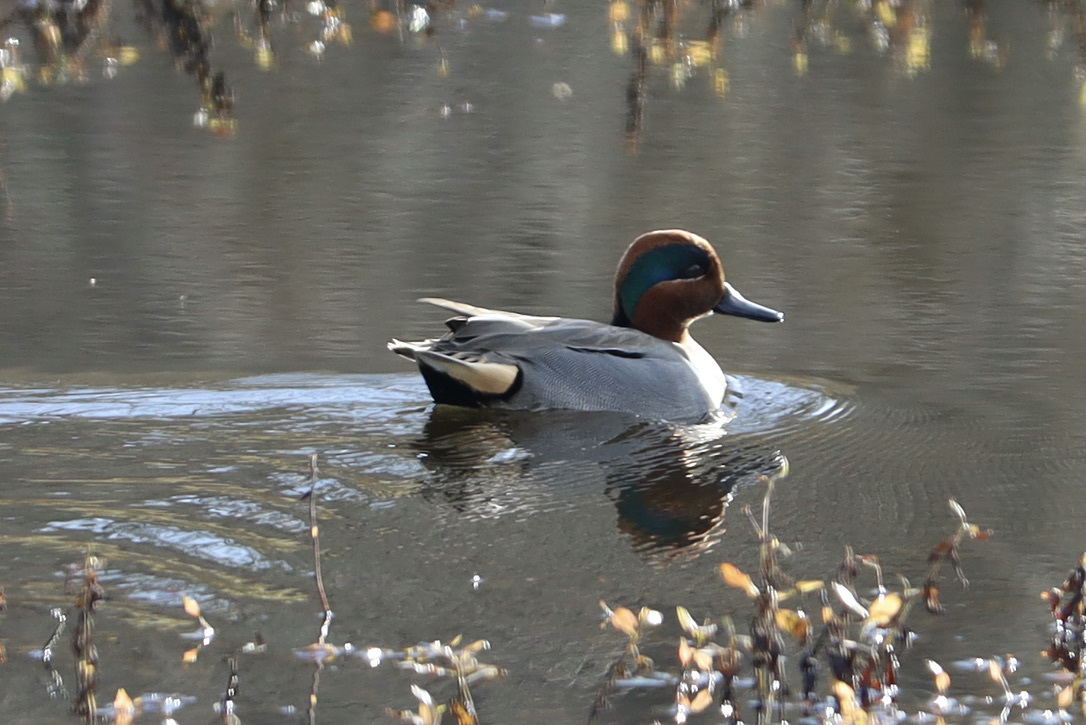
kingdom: Animalia
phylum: Chordata
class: Aves
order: Anseriformes
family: Anatidae
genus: Anas
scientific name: Anas crecca
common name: Eurasian teal
